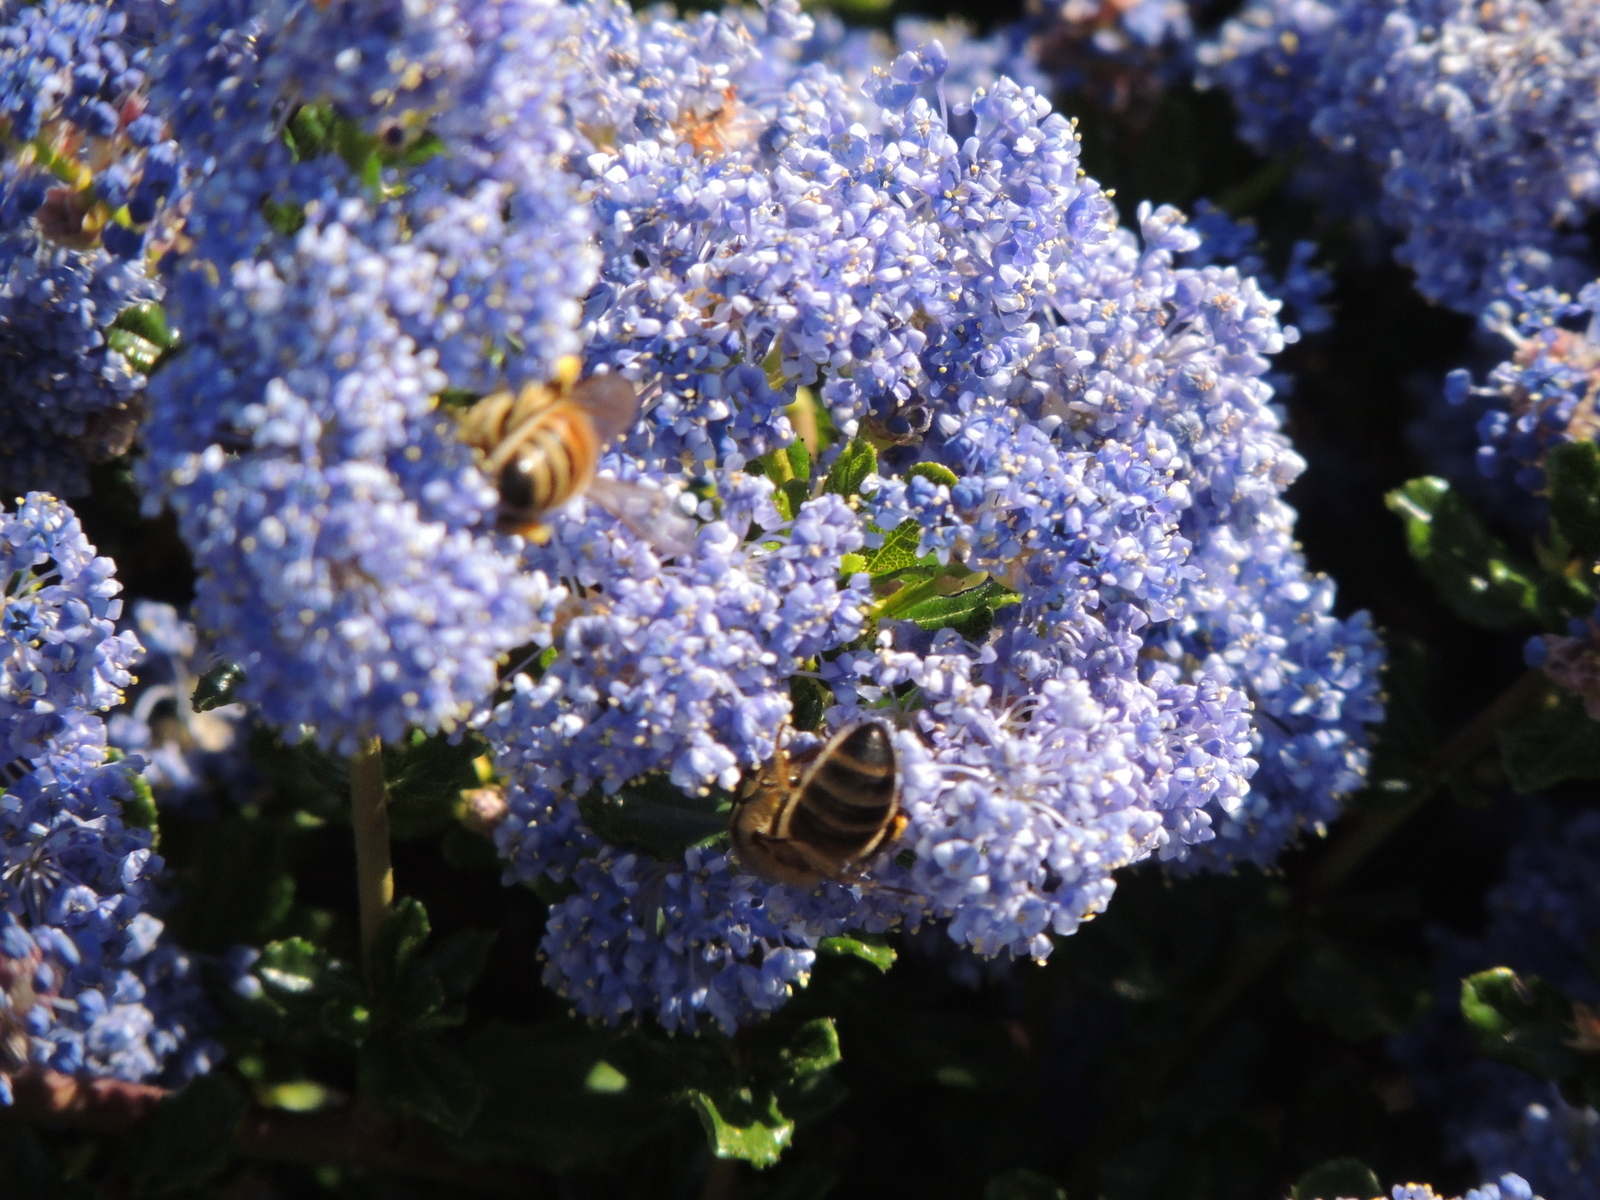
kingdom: Animalia
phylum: Arthropoda
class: Insecta
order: Hymenoptera
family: Apidae
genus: Apis
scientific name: Apis mellifera
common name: Honey bee
